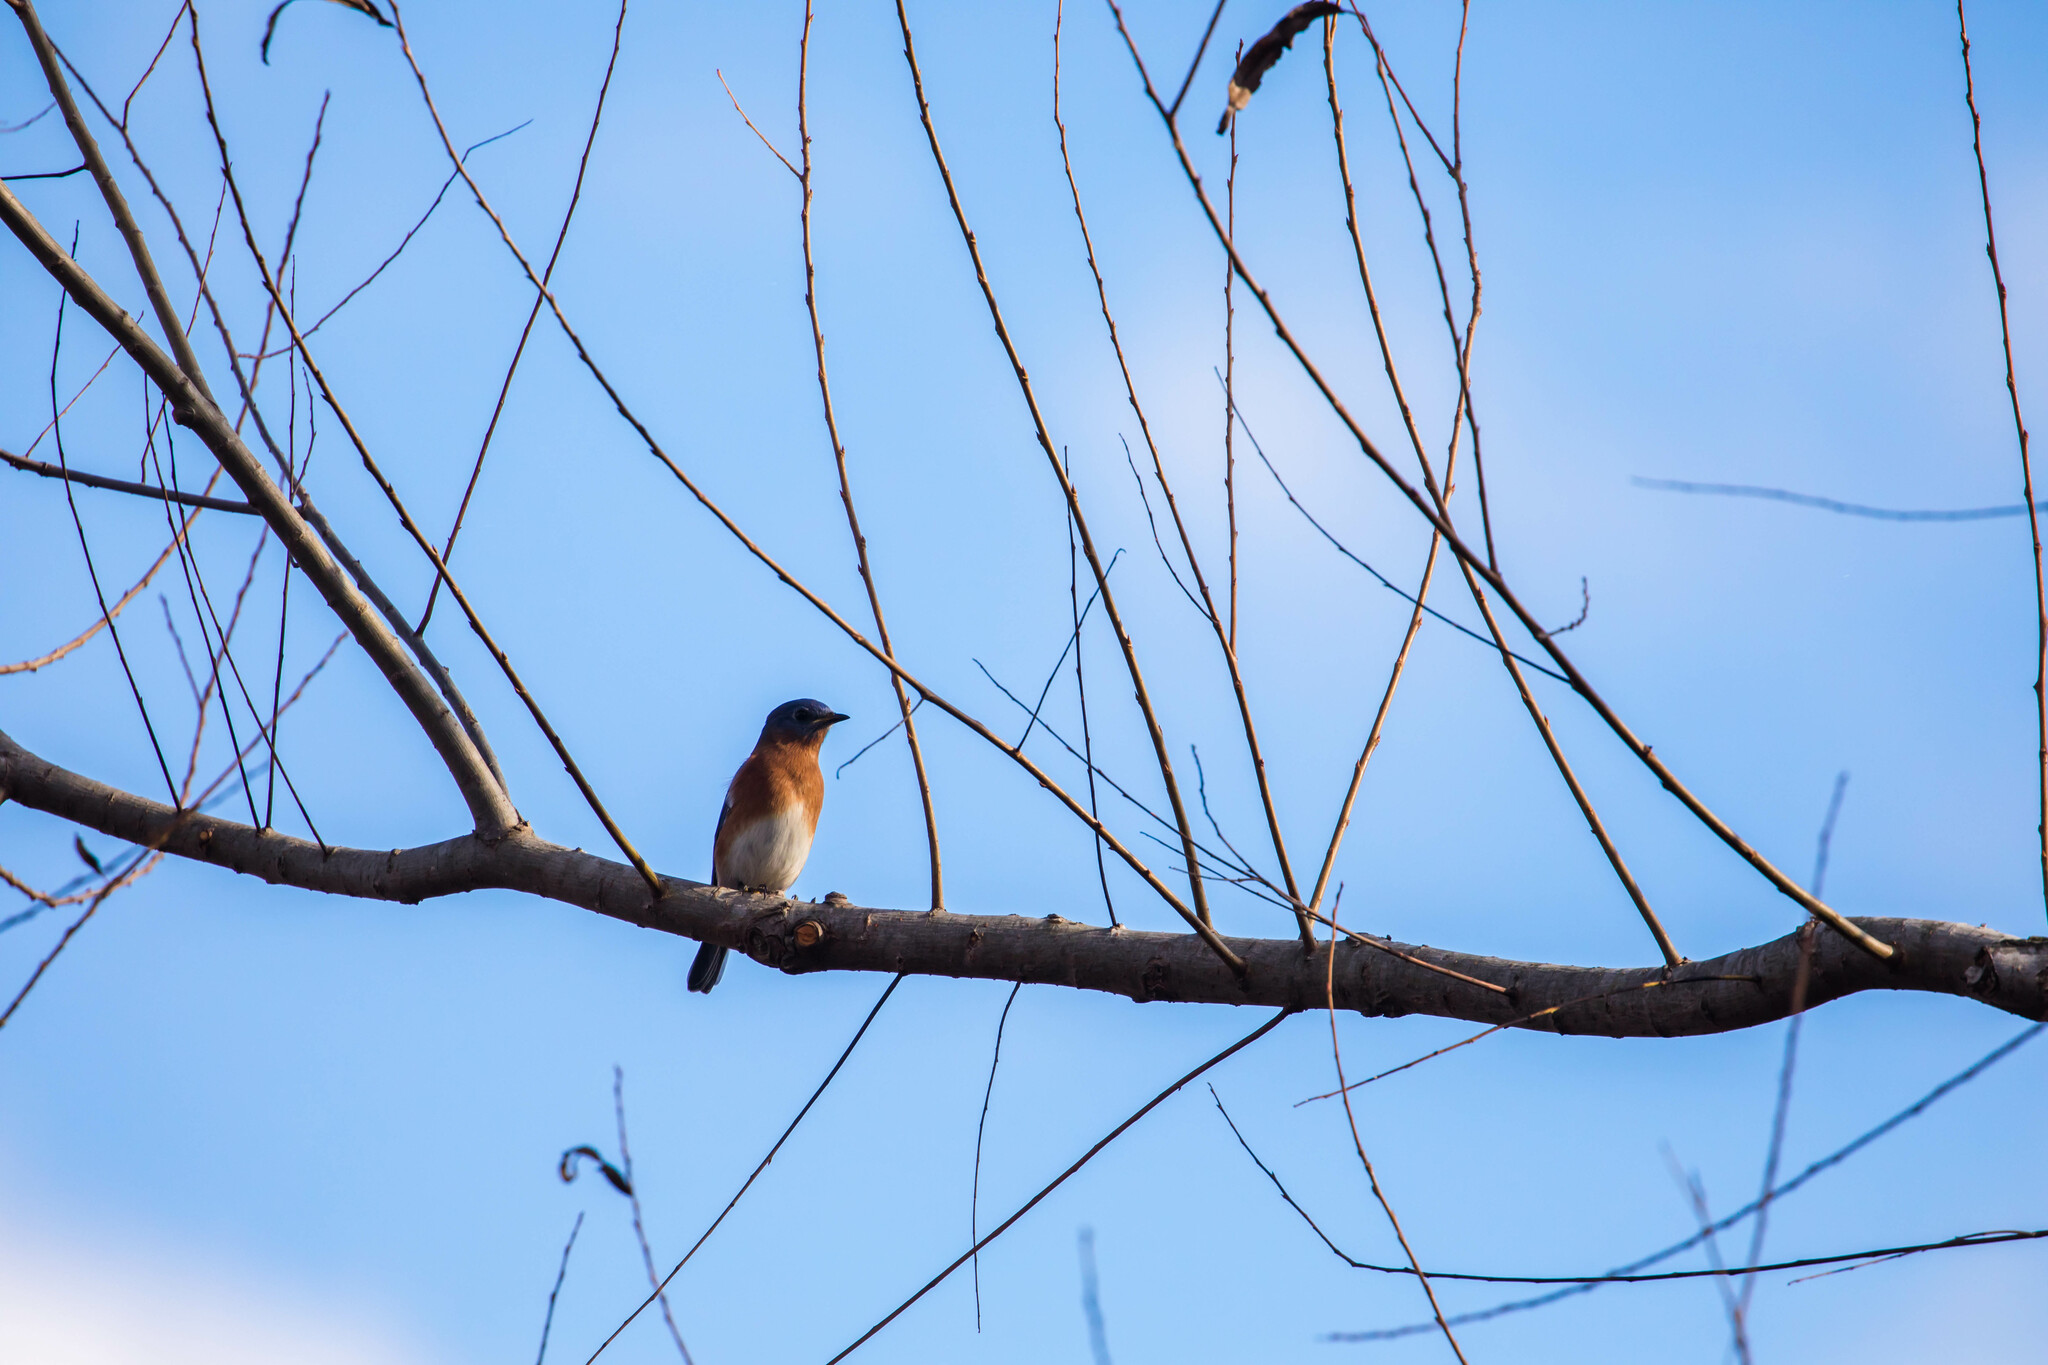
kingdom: Animalia
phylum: Chordata
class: Aves
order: Passeriformes
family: Turdidae
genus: Sialia
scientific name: Sialia sialis
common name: Eastern bluebird
